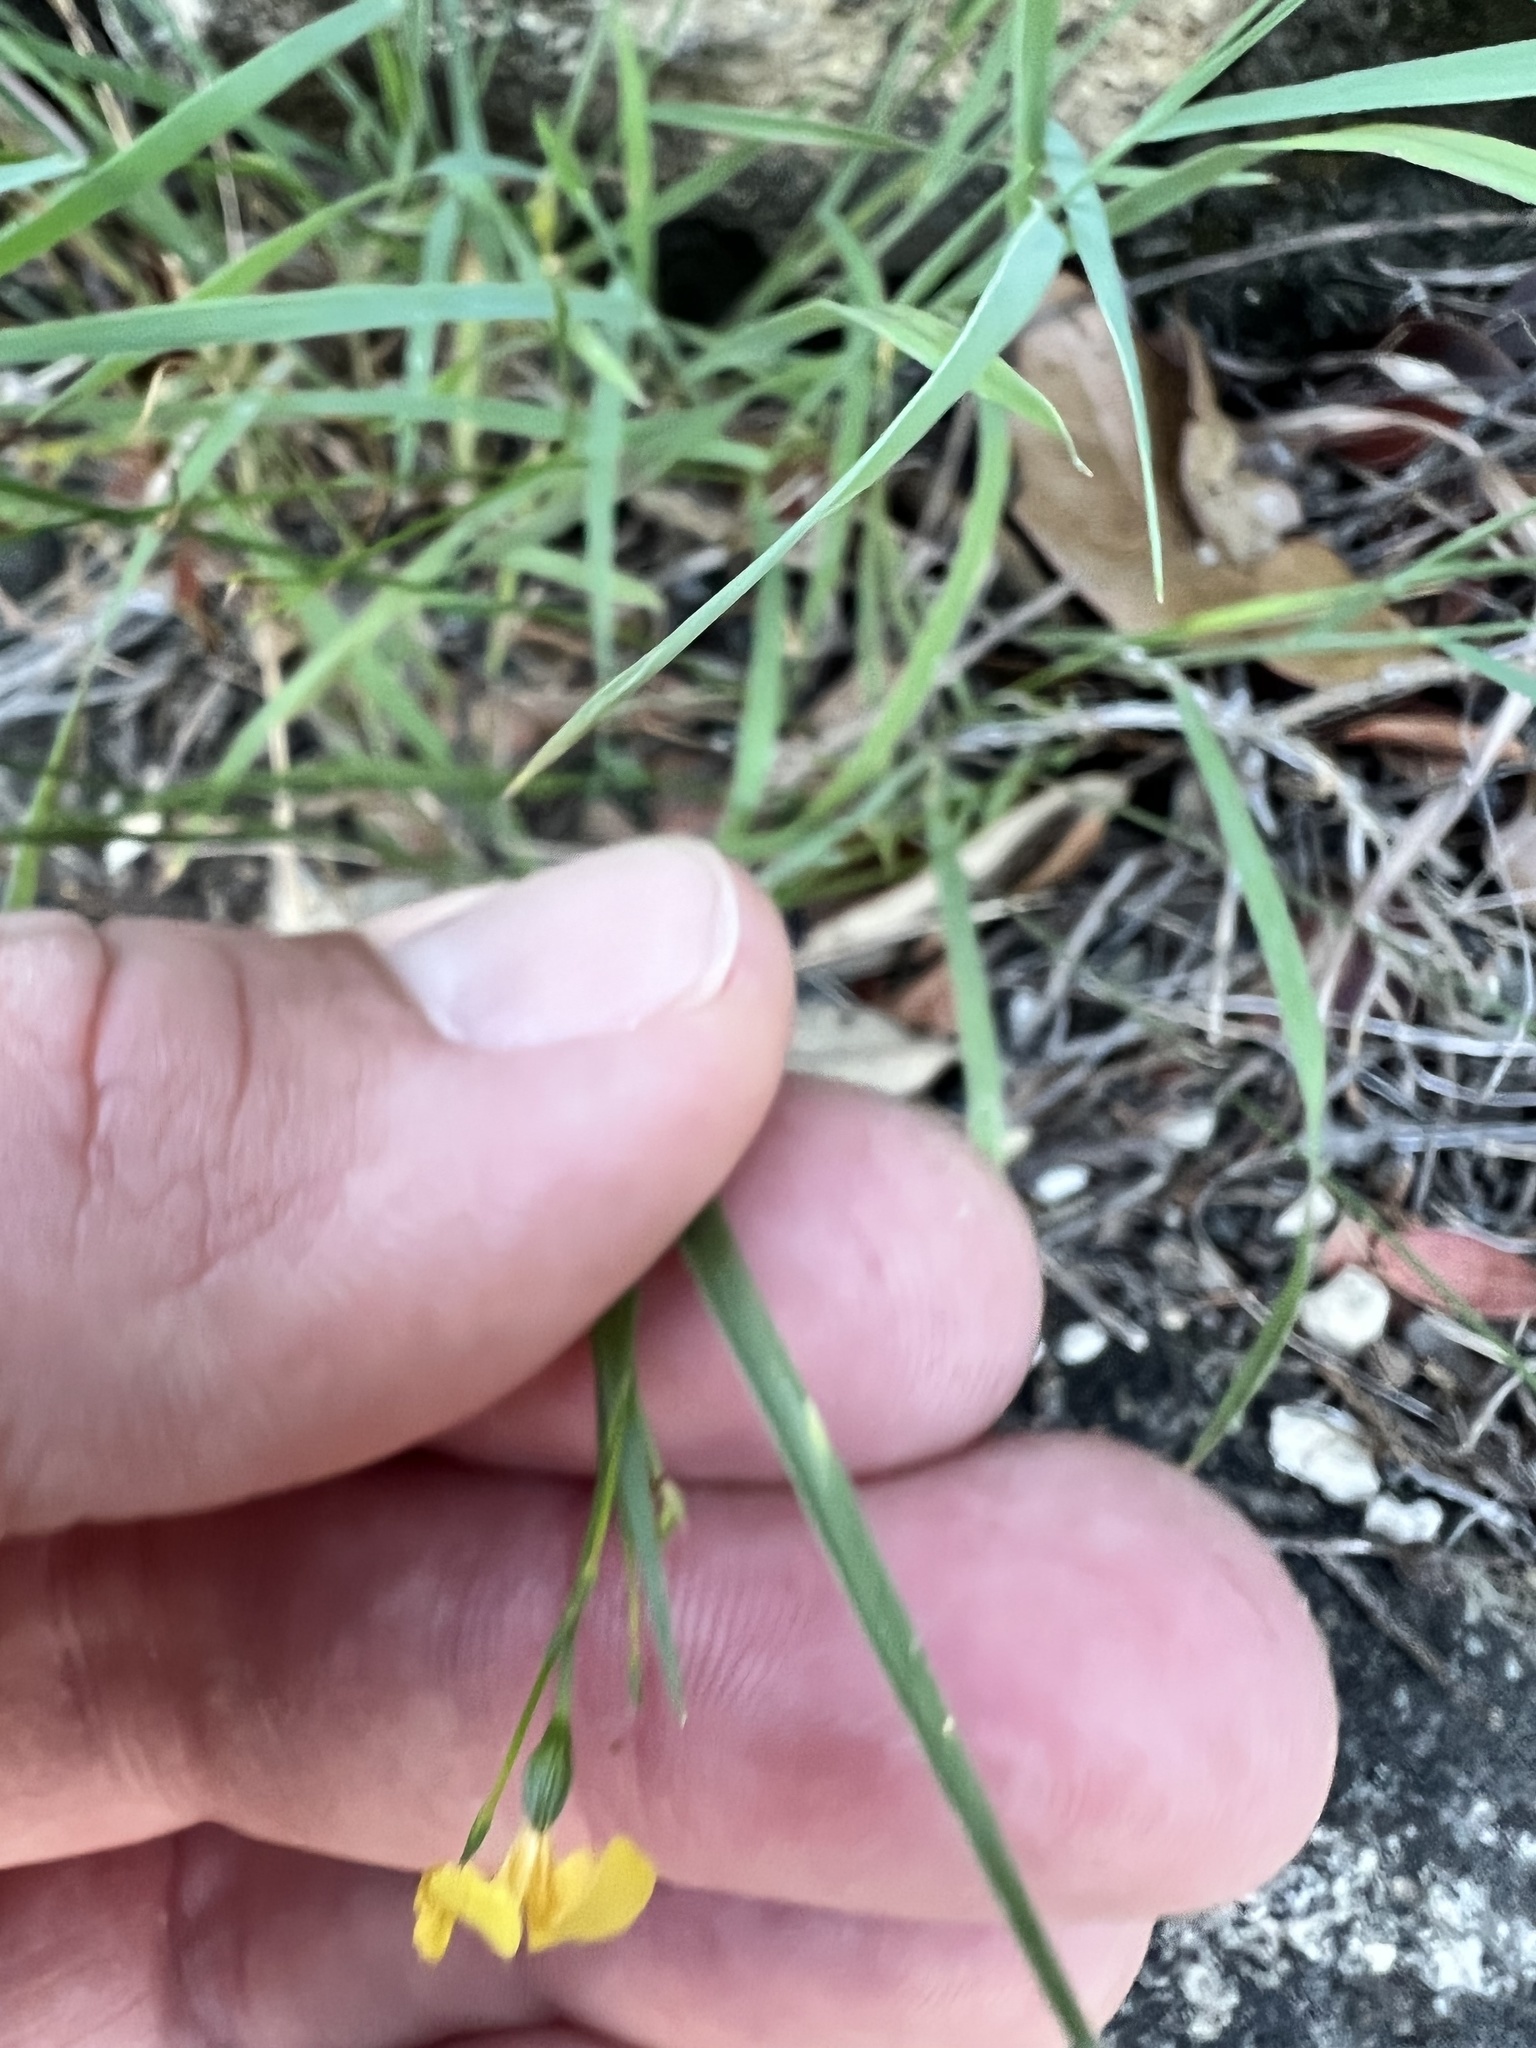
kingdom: Plantae
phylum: Tracheophyta
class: Magnoliopsida
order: Malpighiales
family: Linaceae
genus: Linum
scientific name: Linum rupestre
